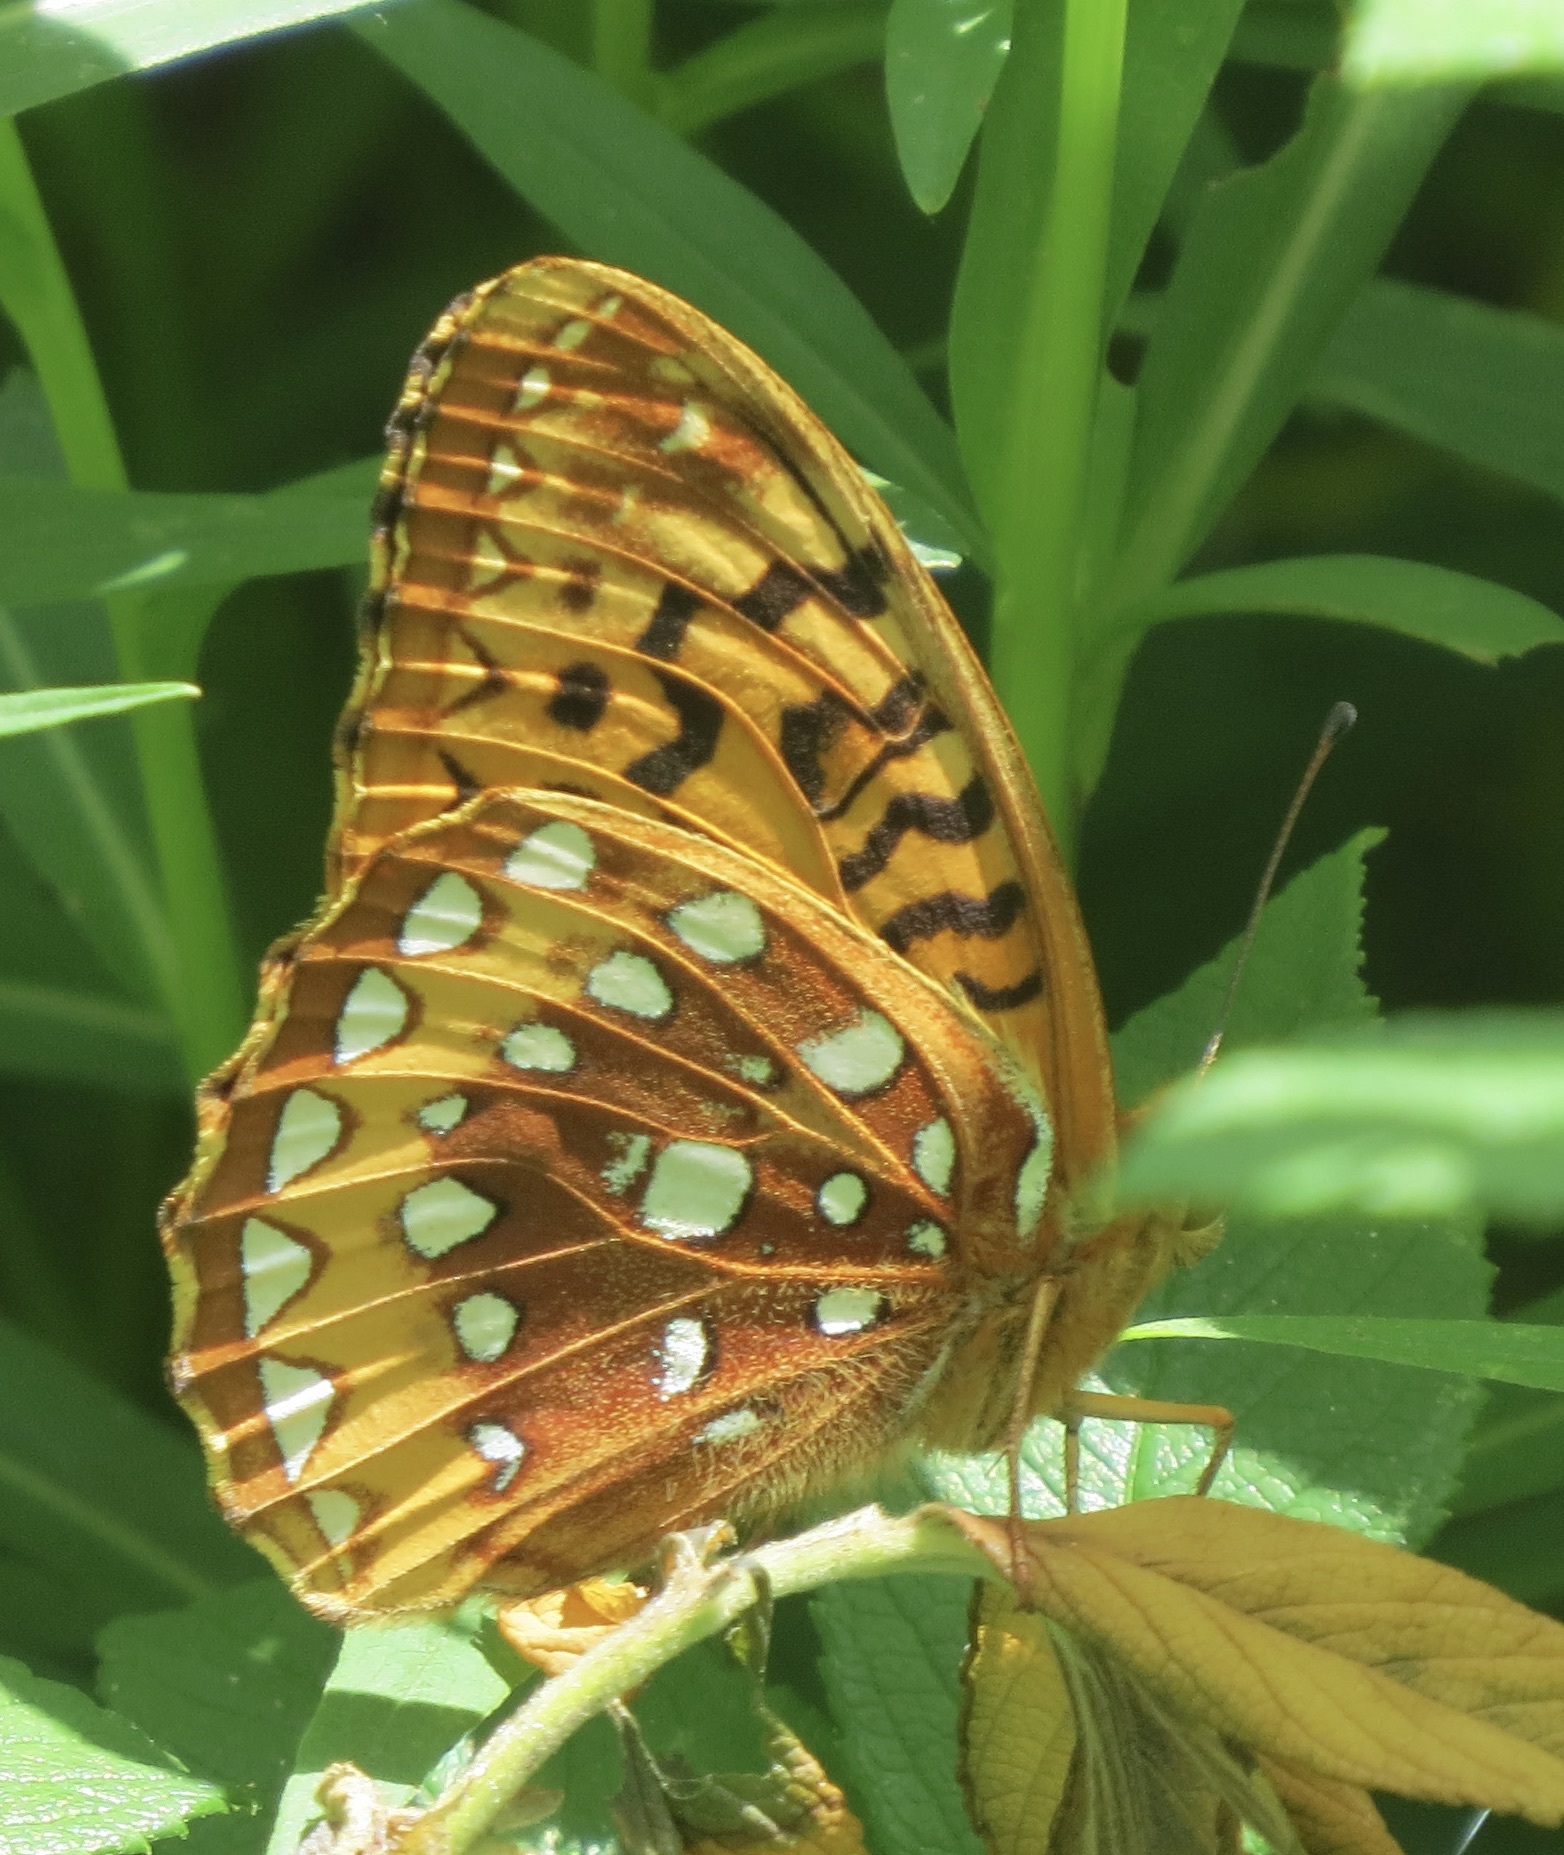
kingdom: Animalia
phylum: Arthropoda
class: Insecta
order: Lepidoptera
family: Nymphalidae
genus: Speyeria
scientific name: Speyeria cybele
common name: Great spangled fritillary
